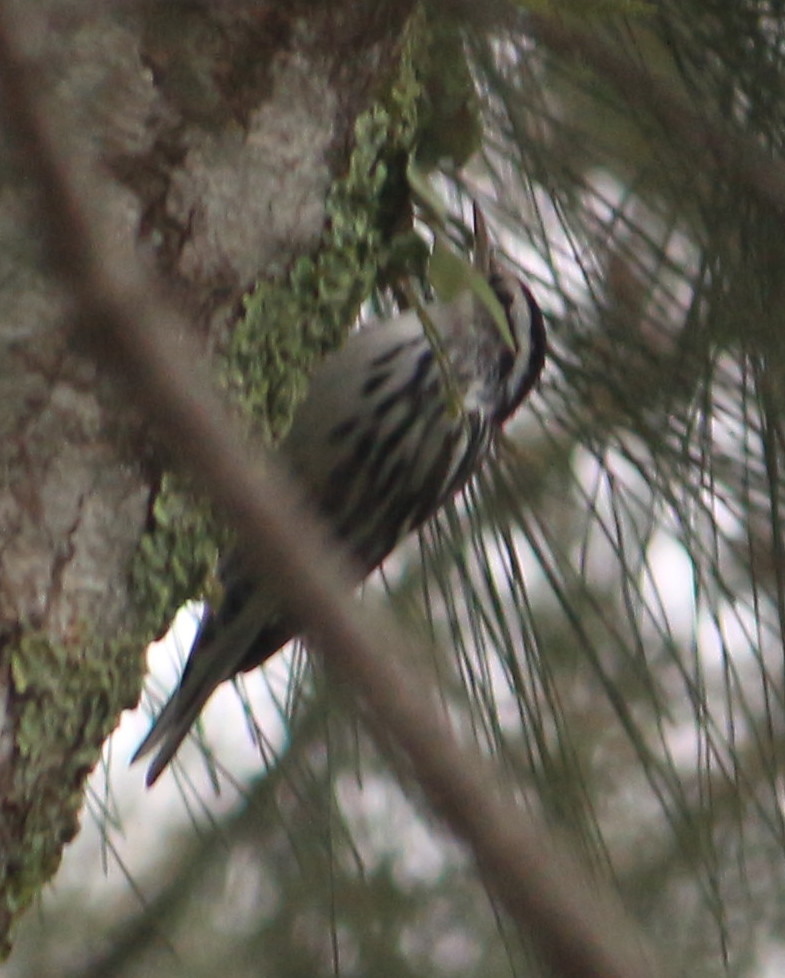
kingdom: Animalia
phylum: Chordata
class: Aves
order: Passeriformes
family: Parulidae
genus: Mniotilta
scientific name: Mniotilta varia
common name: Black-and-white warbler
